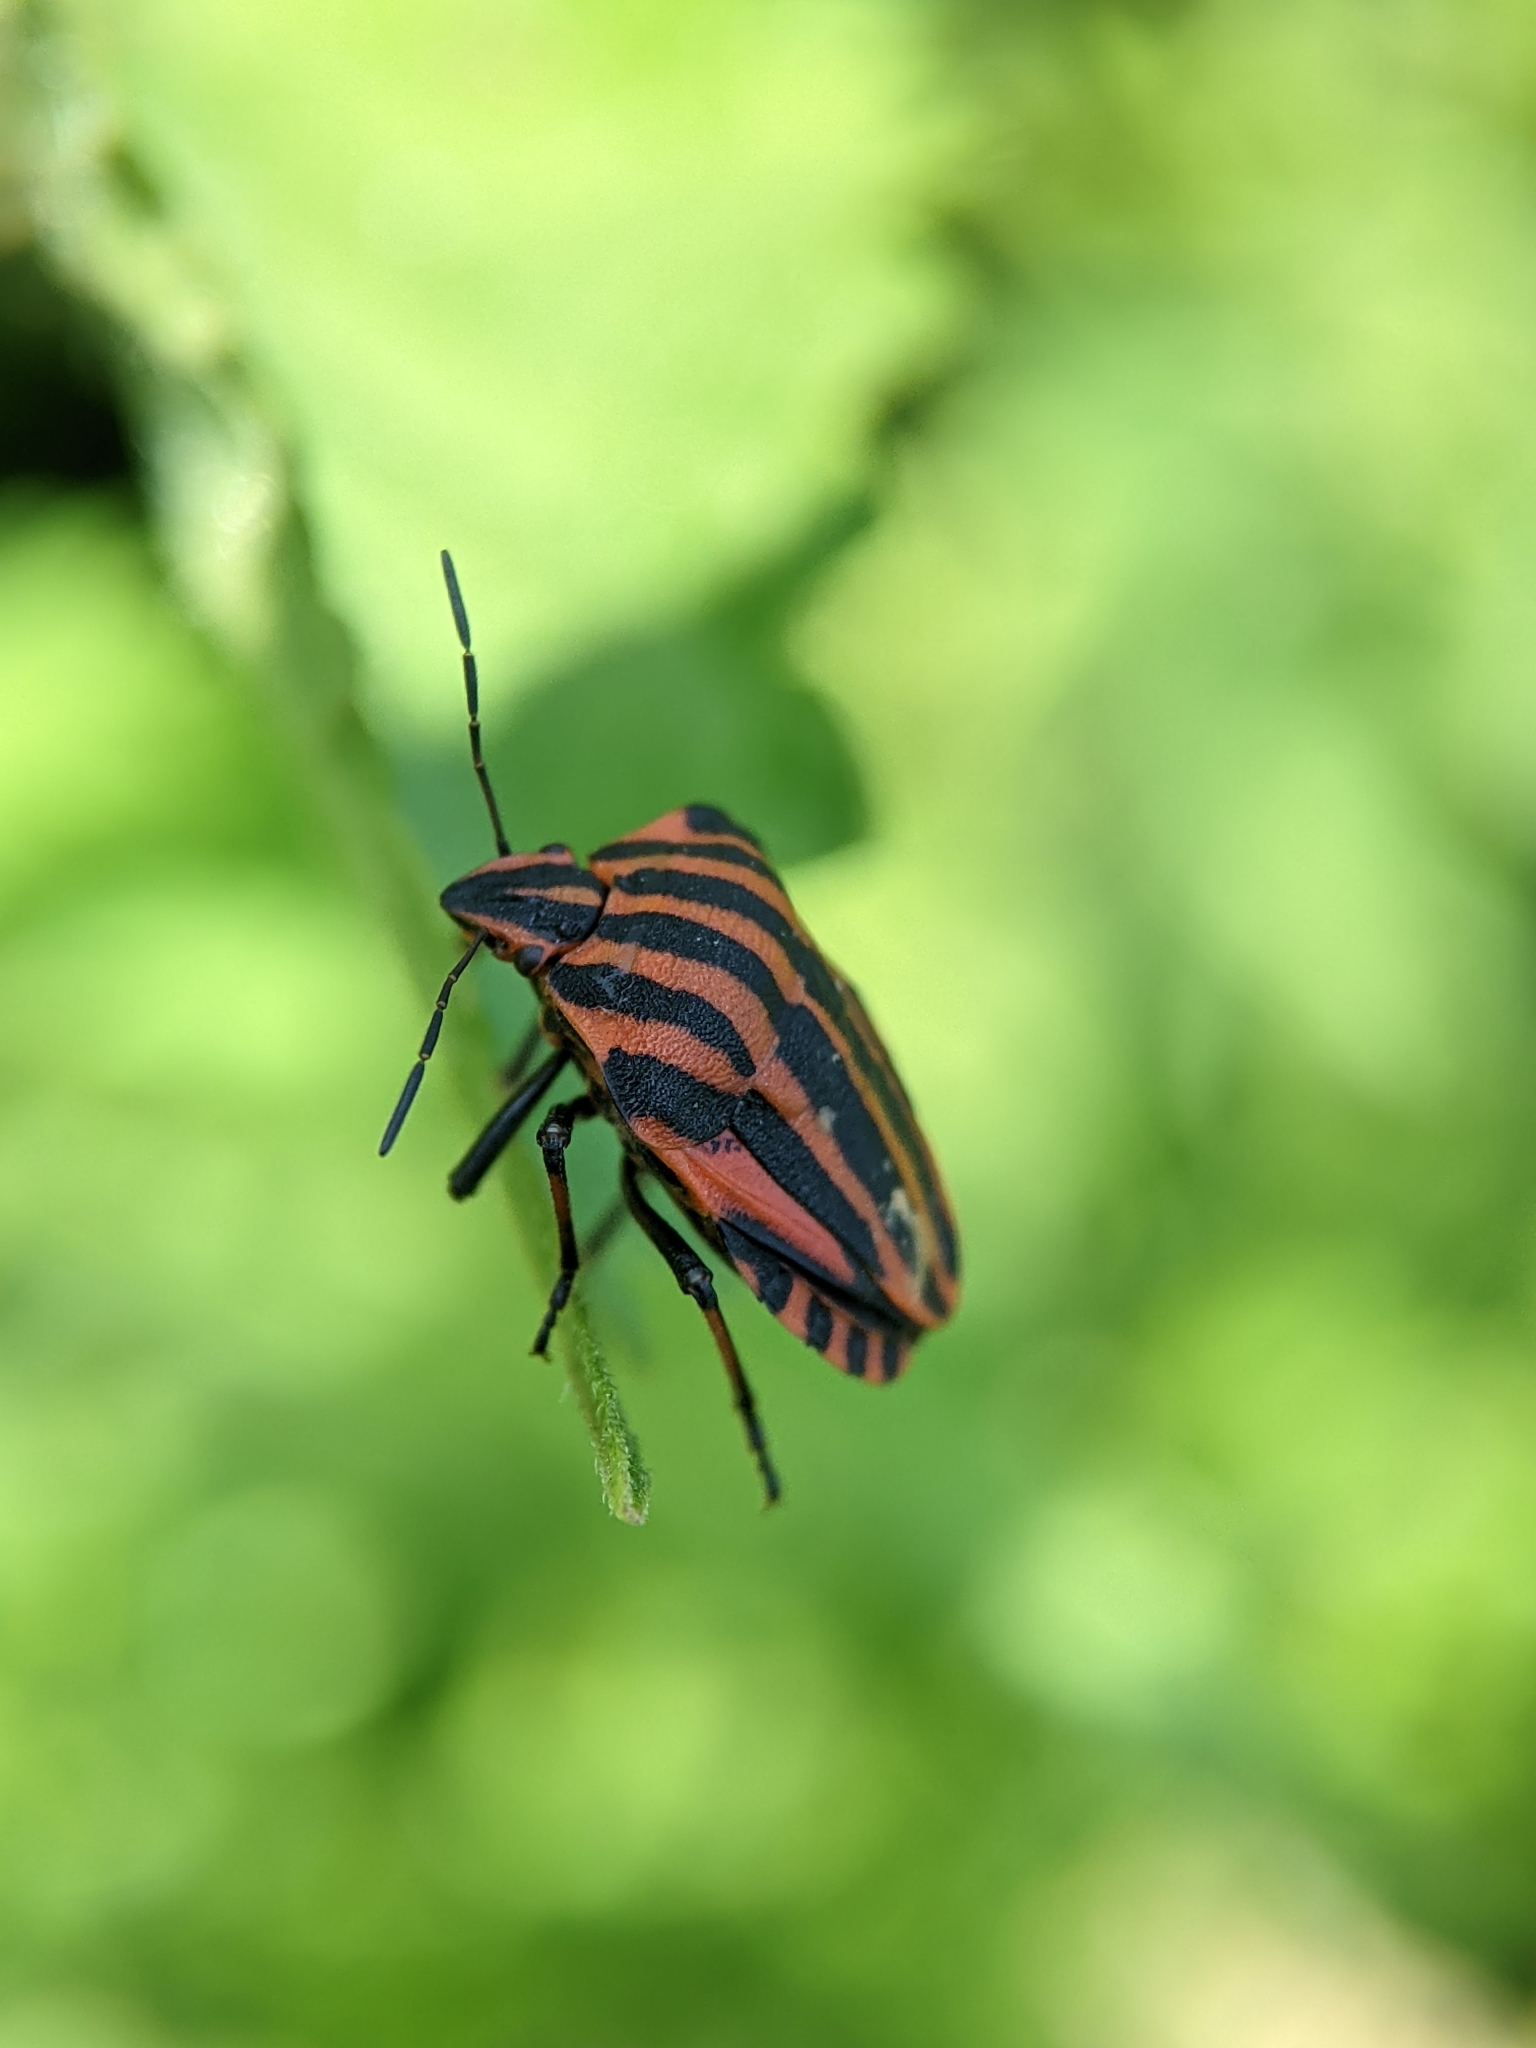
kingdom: Animalia
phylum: Arthropoda
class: Insecta
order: Hemiptera
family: Pentatomidae
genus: Graphosoma
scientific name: Graphosoma italicum
